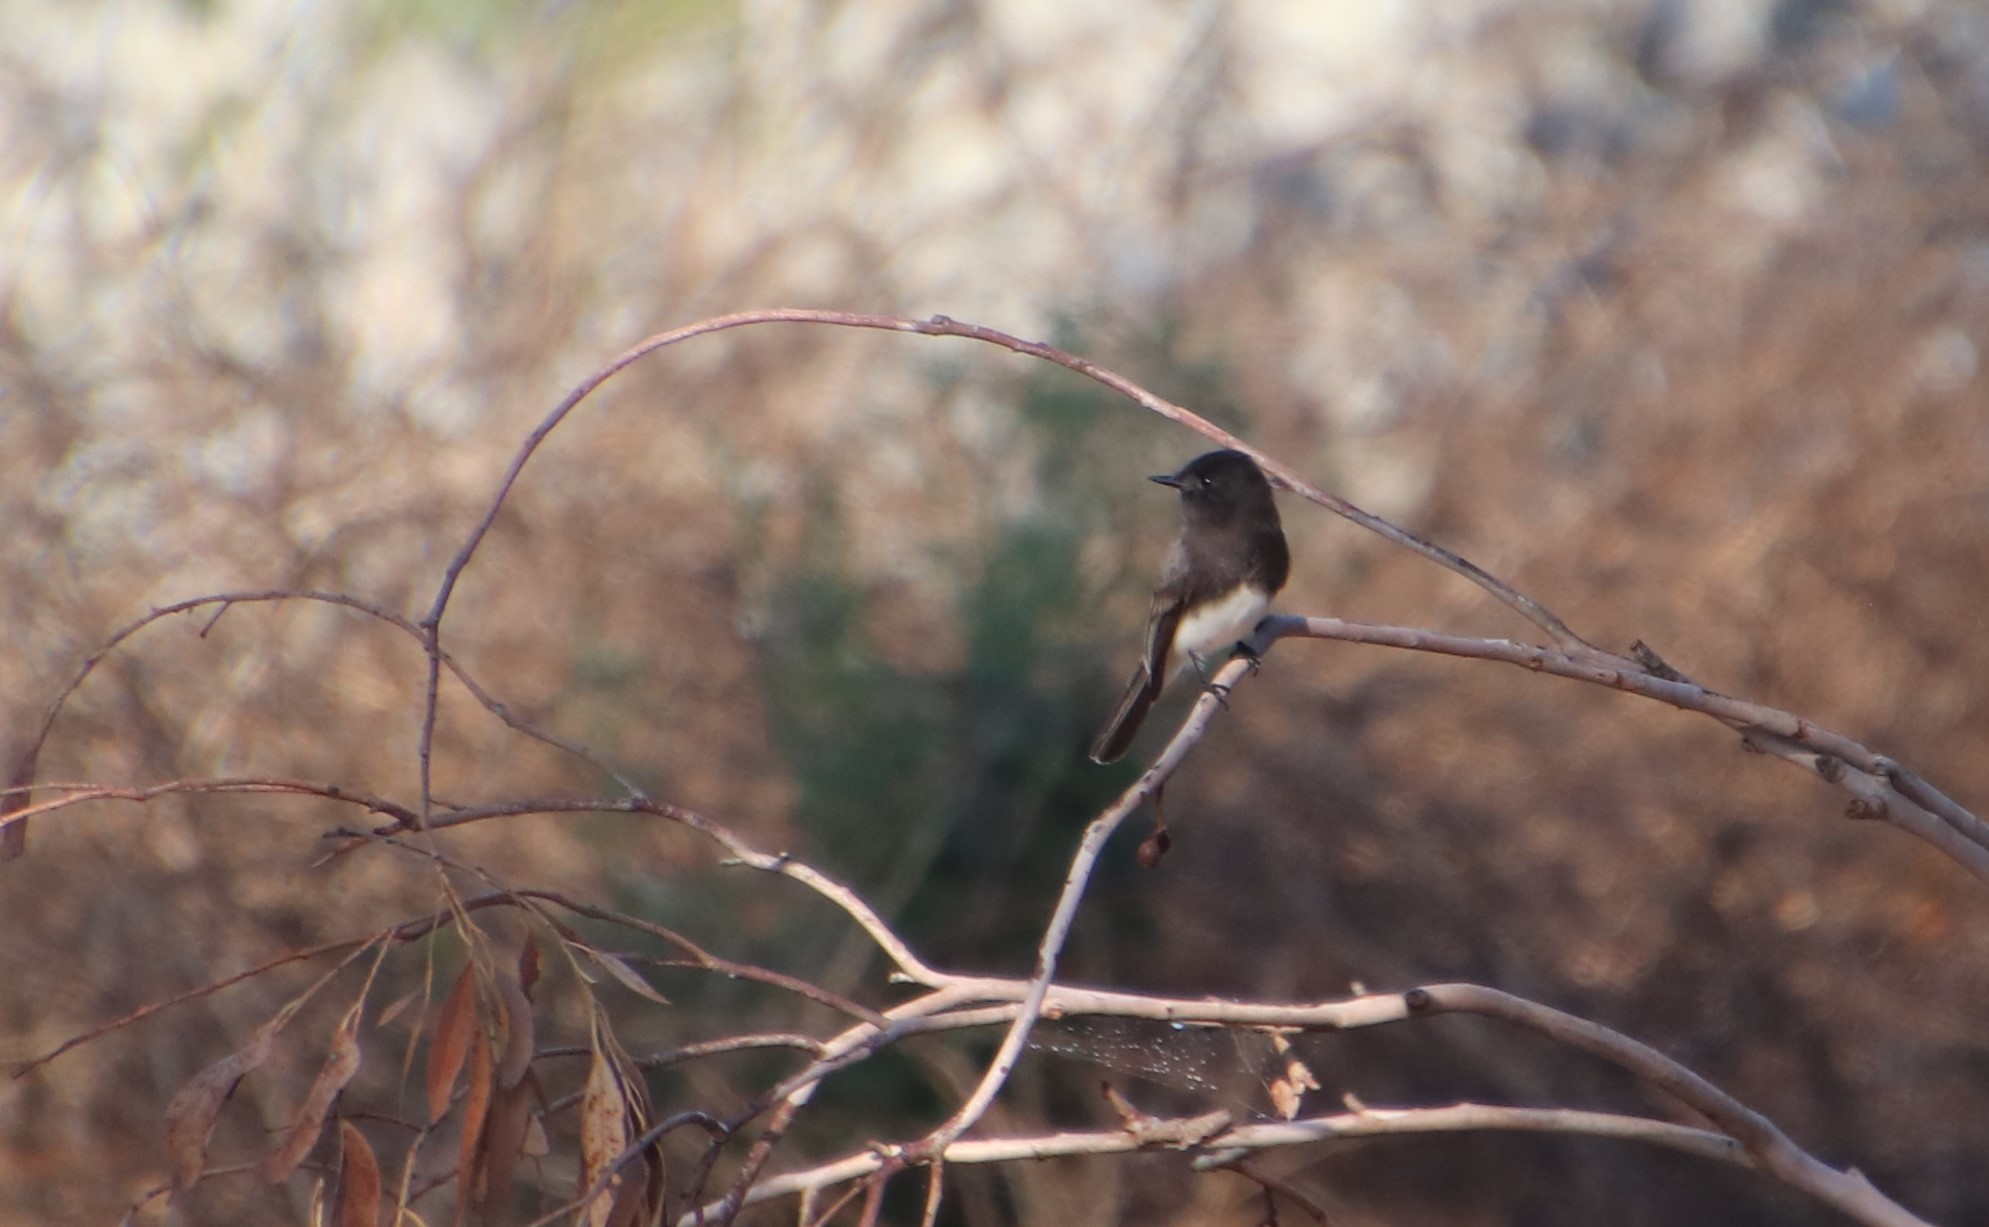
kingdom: Animalia
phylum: Chordata
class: Aves
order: Passeriformes
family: Tyrannidae
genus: Sayornis
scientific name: Sayornis nigricans
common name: Black phoebe
